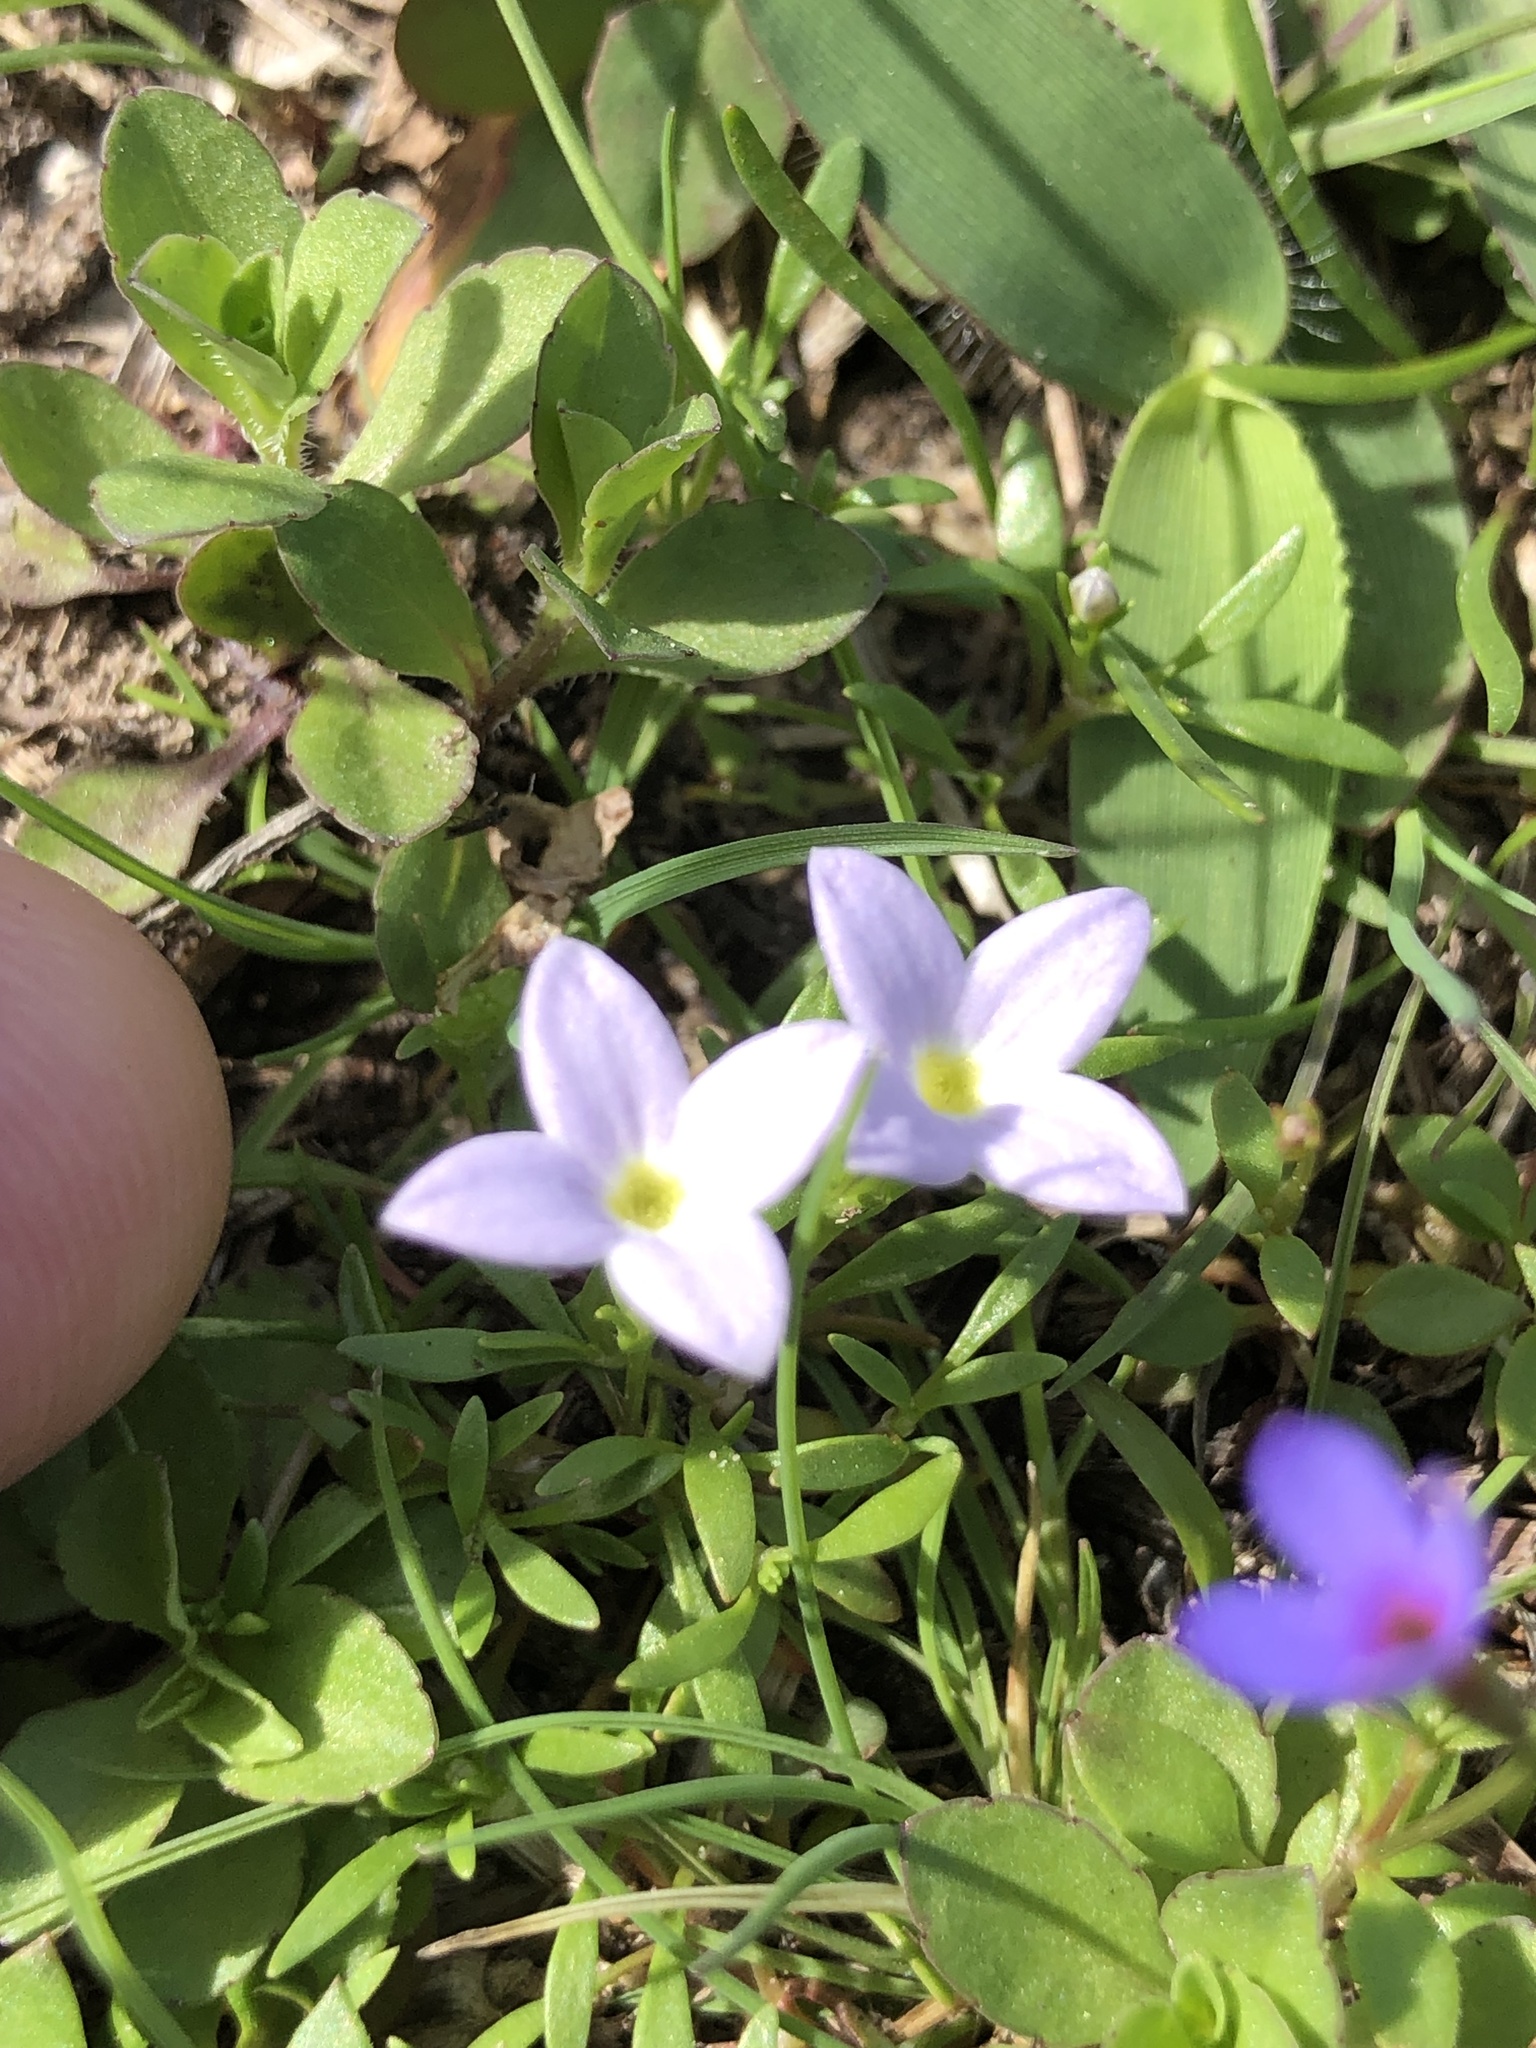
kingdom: Plantae
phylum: Tracheophyta
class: Magnoliopsida
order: Gentianales
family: Rubiaceae
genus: Houstonia
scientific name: Houstonia rosea
